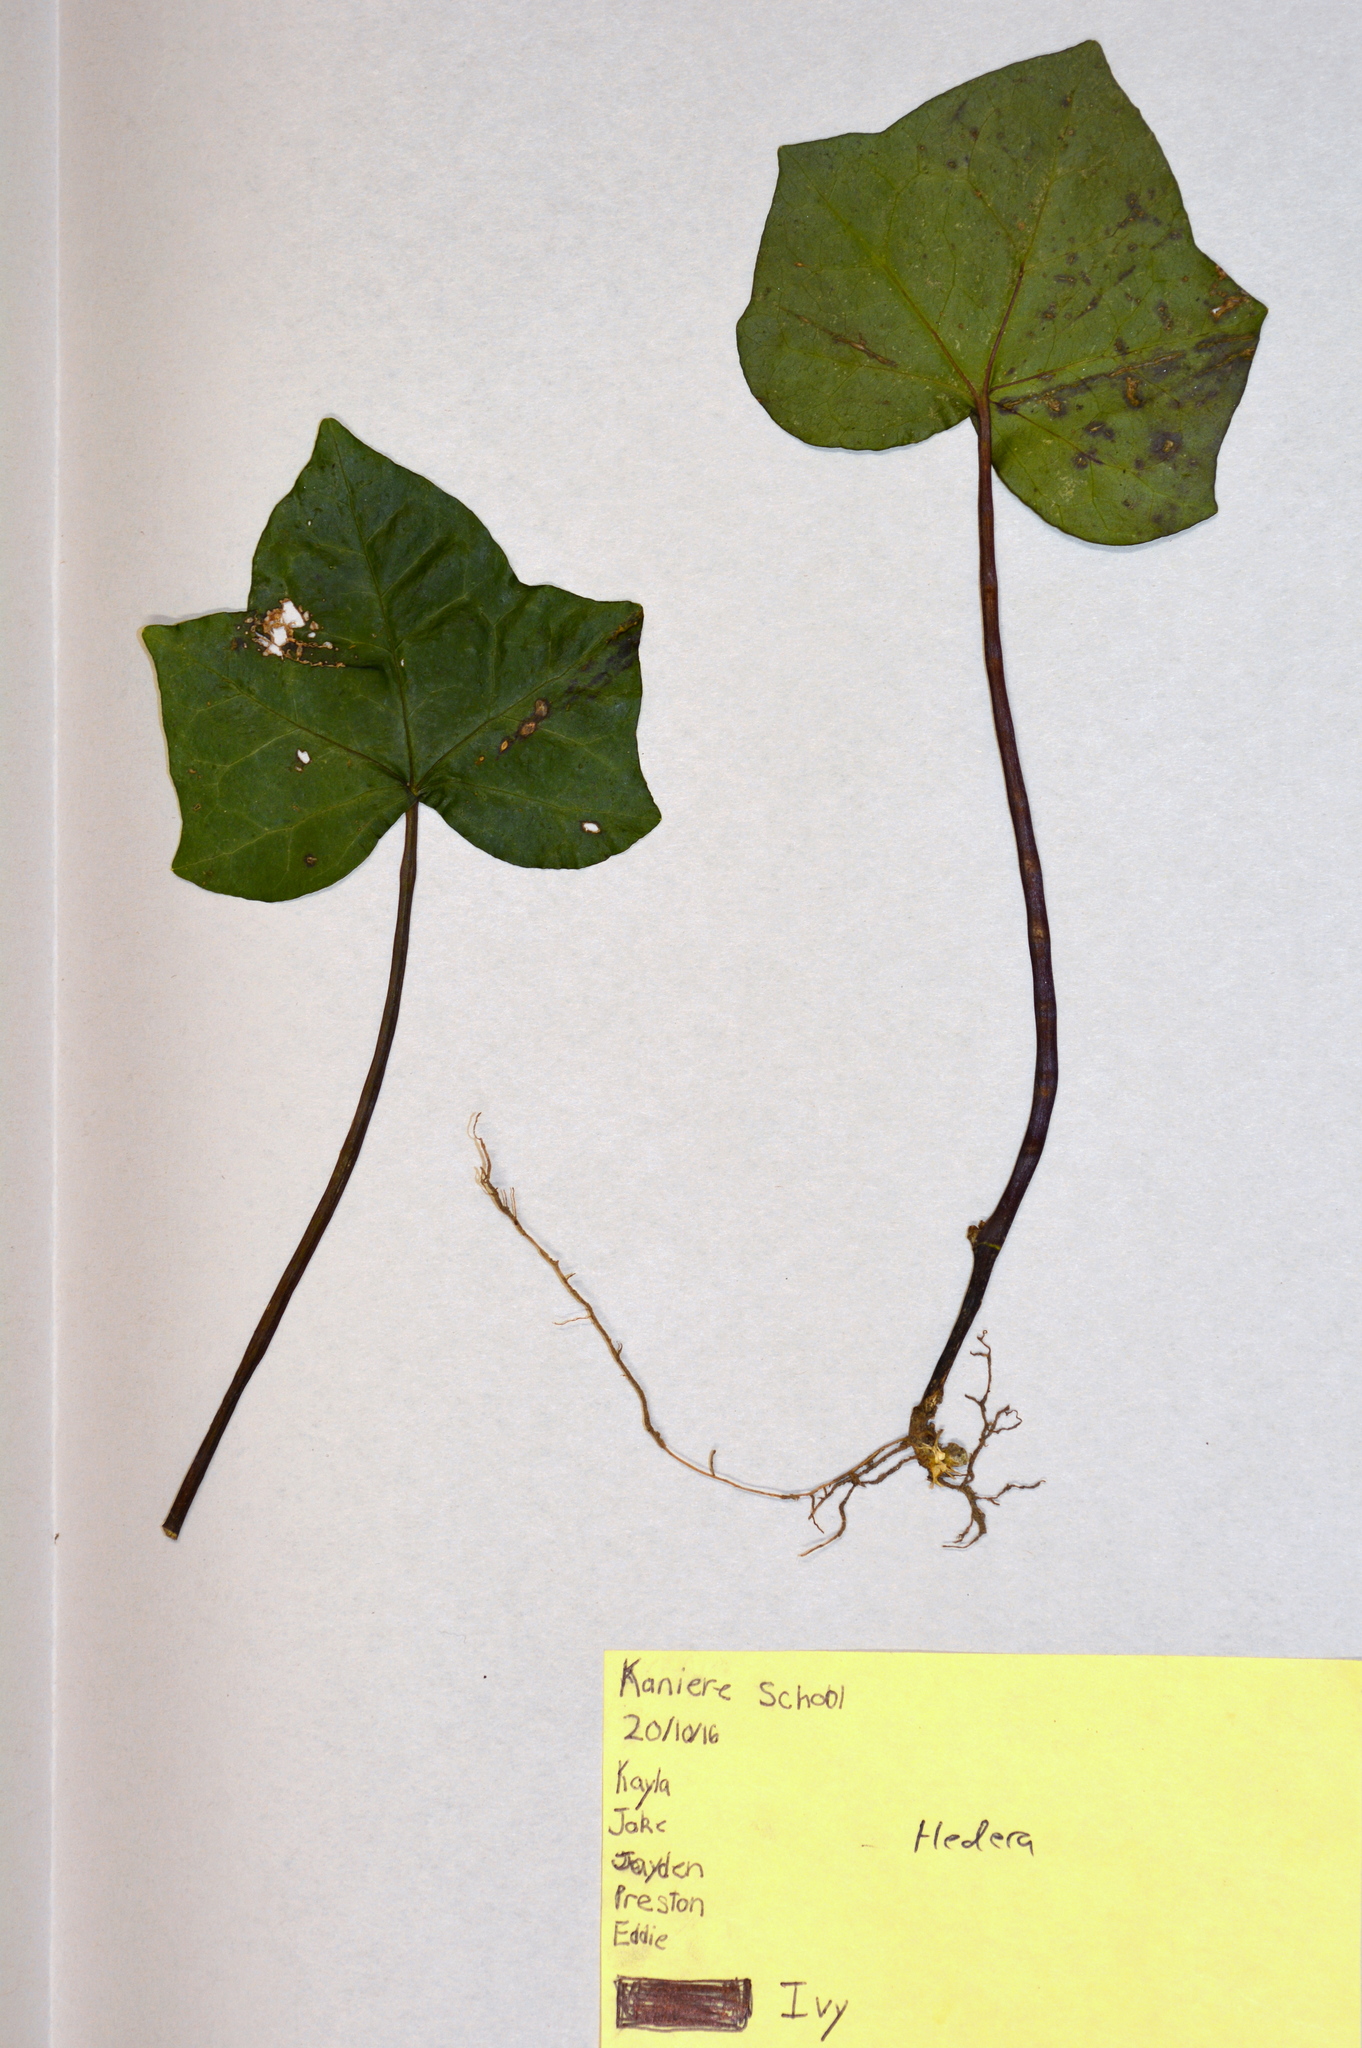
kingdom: Plantae
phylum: Tracheophyta
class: Magnoliopsida
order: Apiales
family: Araliaceae
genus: Hedera
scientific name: Hedera helix
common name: Ivy
